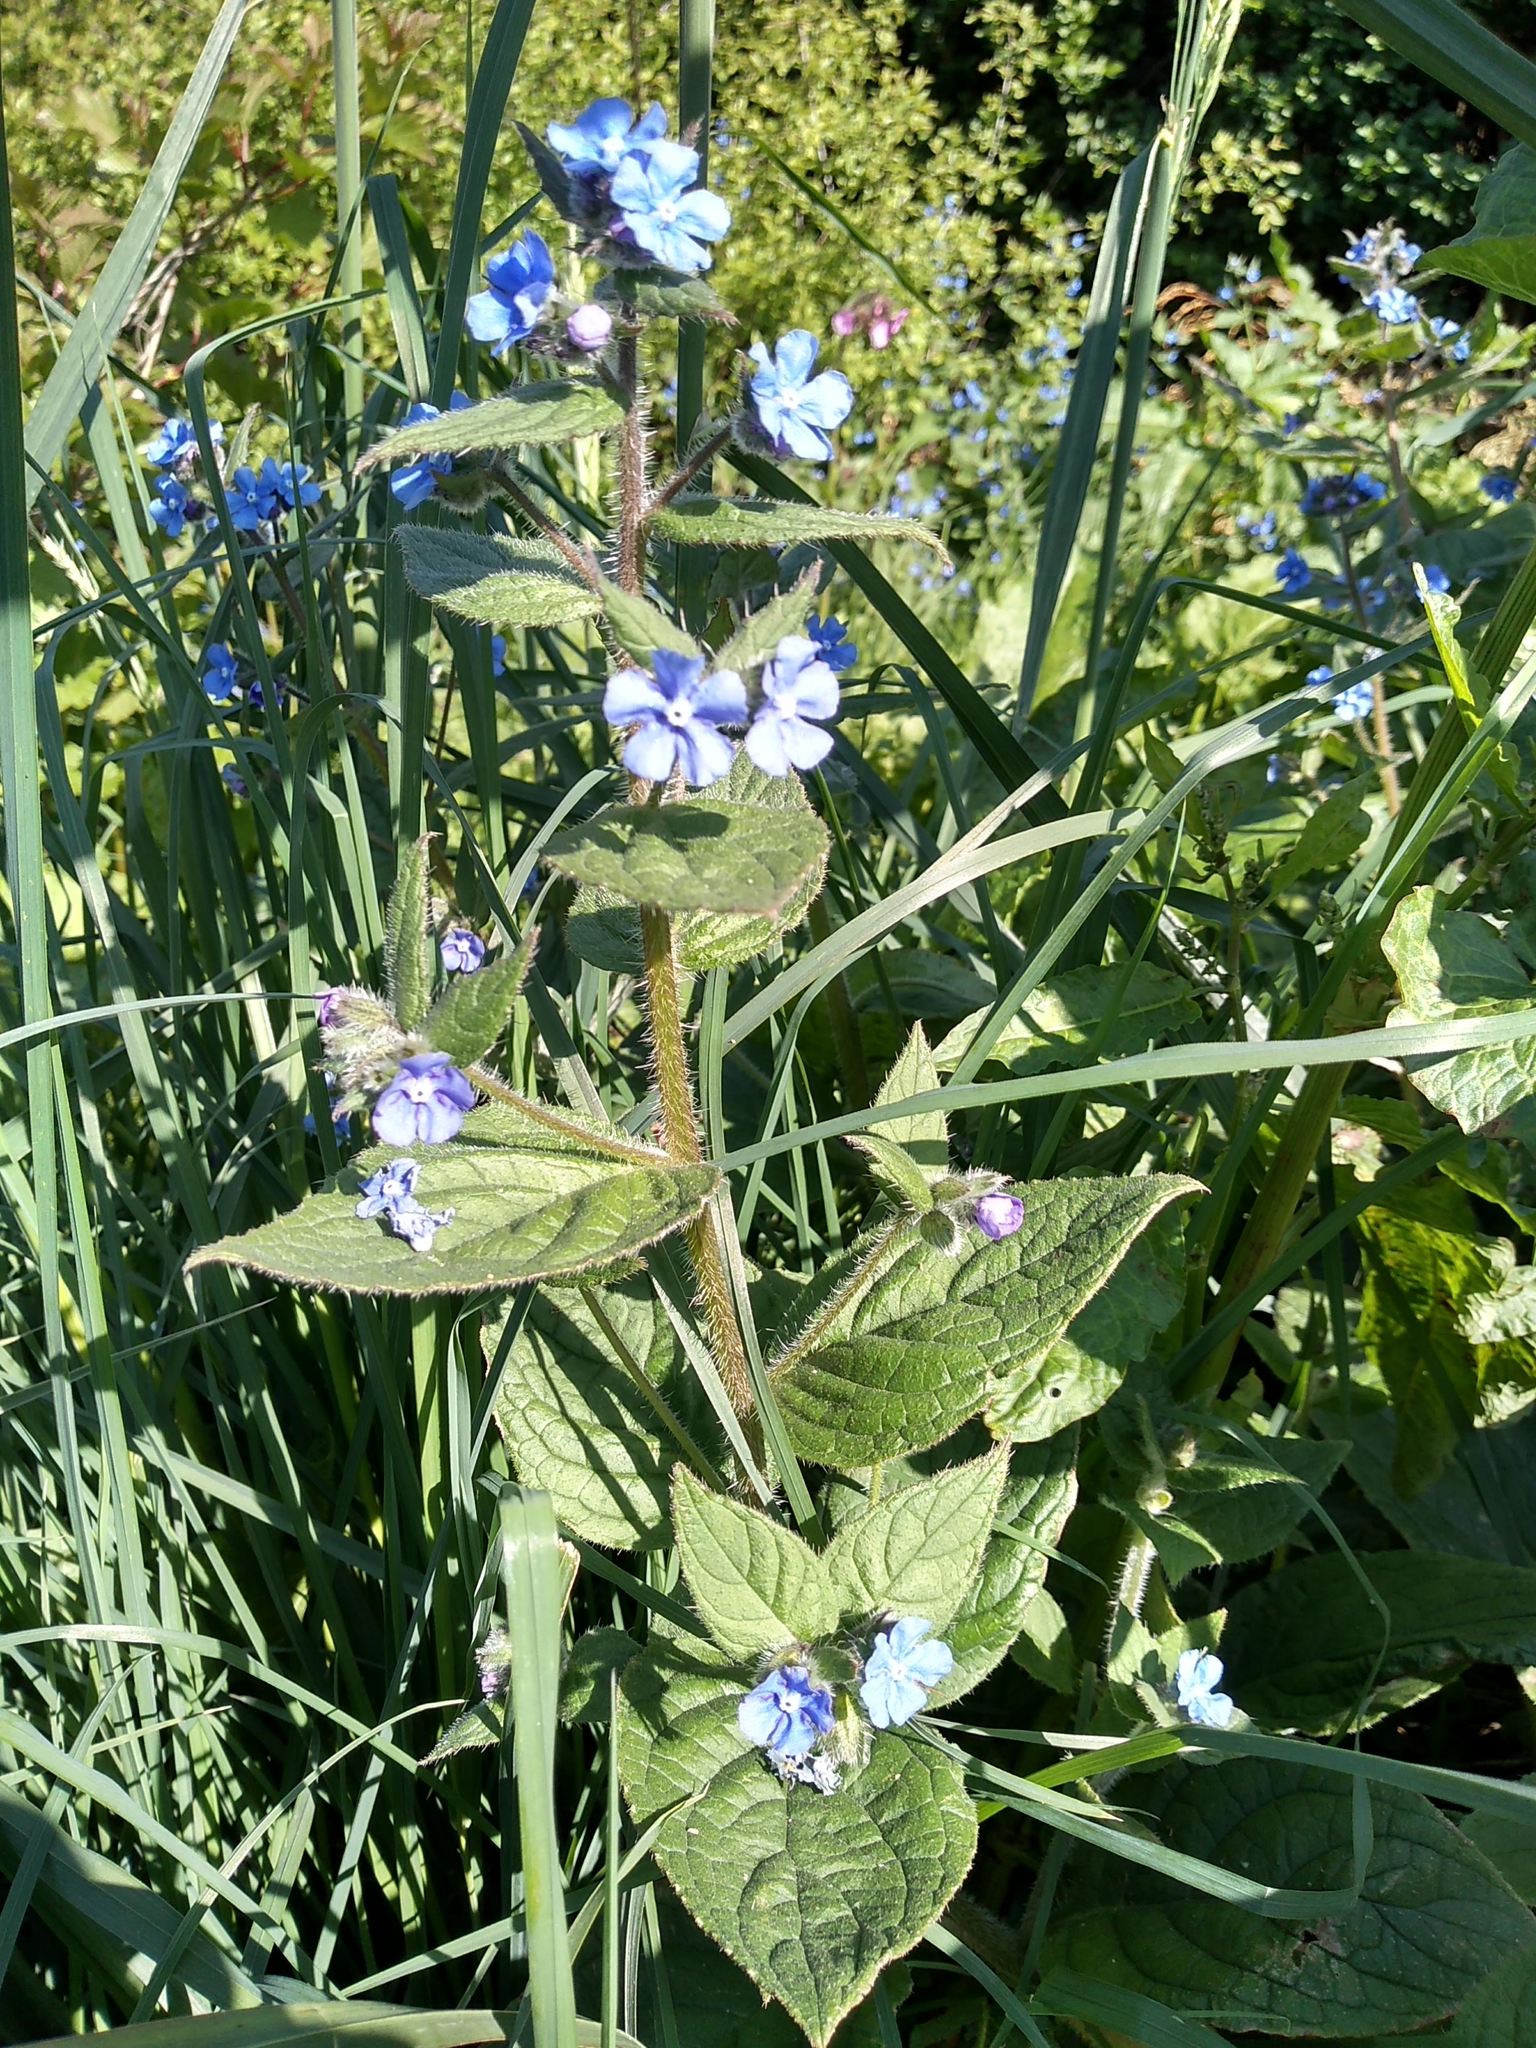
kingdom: Plantae
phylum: Tracheophyta
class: Magnoliopsida
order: Boraginales
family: Boraginaceae
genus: Pentaglottis
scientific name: Pentaglottis sempervirens
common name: Green alkanet
